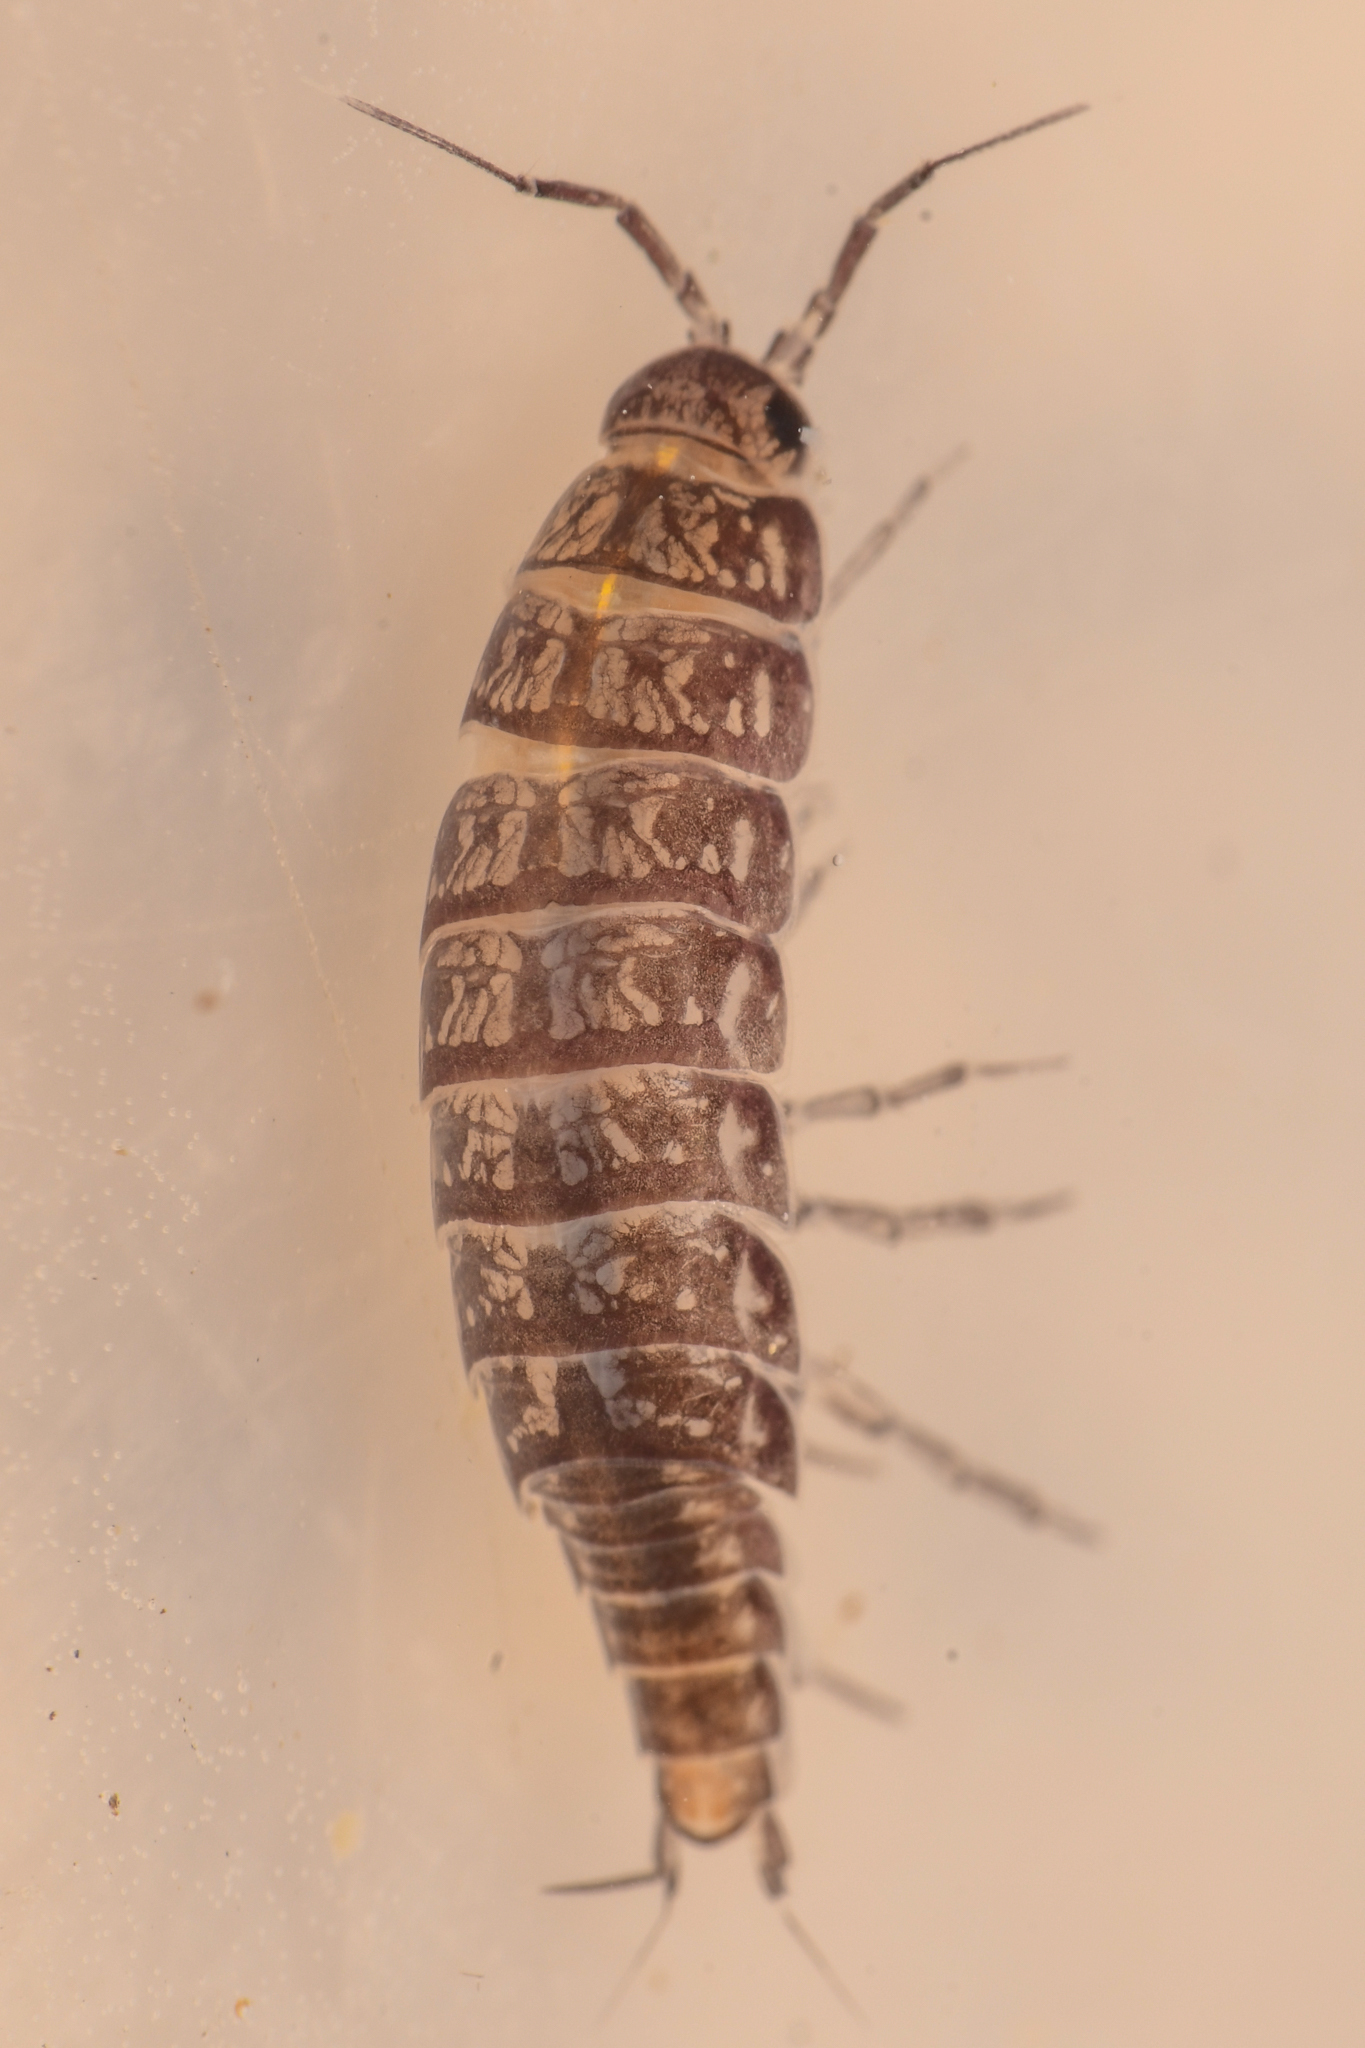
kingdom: Animalia
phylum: Arthropoda
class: Malacostraca
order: Isopoda
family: Ligiidae
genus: Ligidium
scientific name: Ligidium gracile
